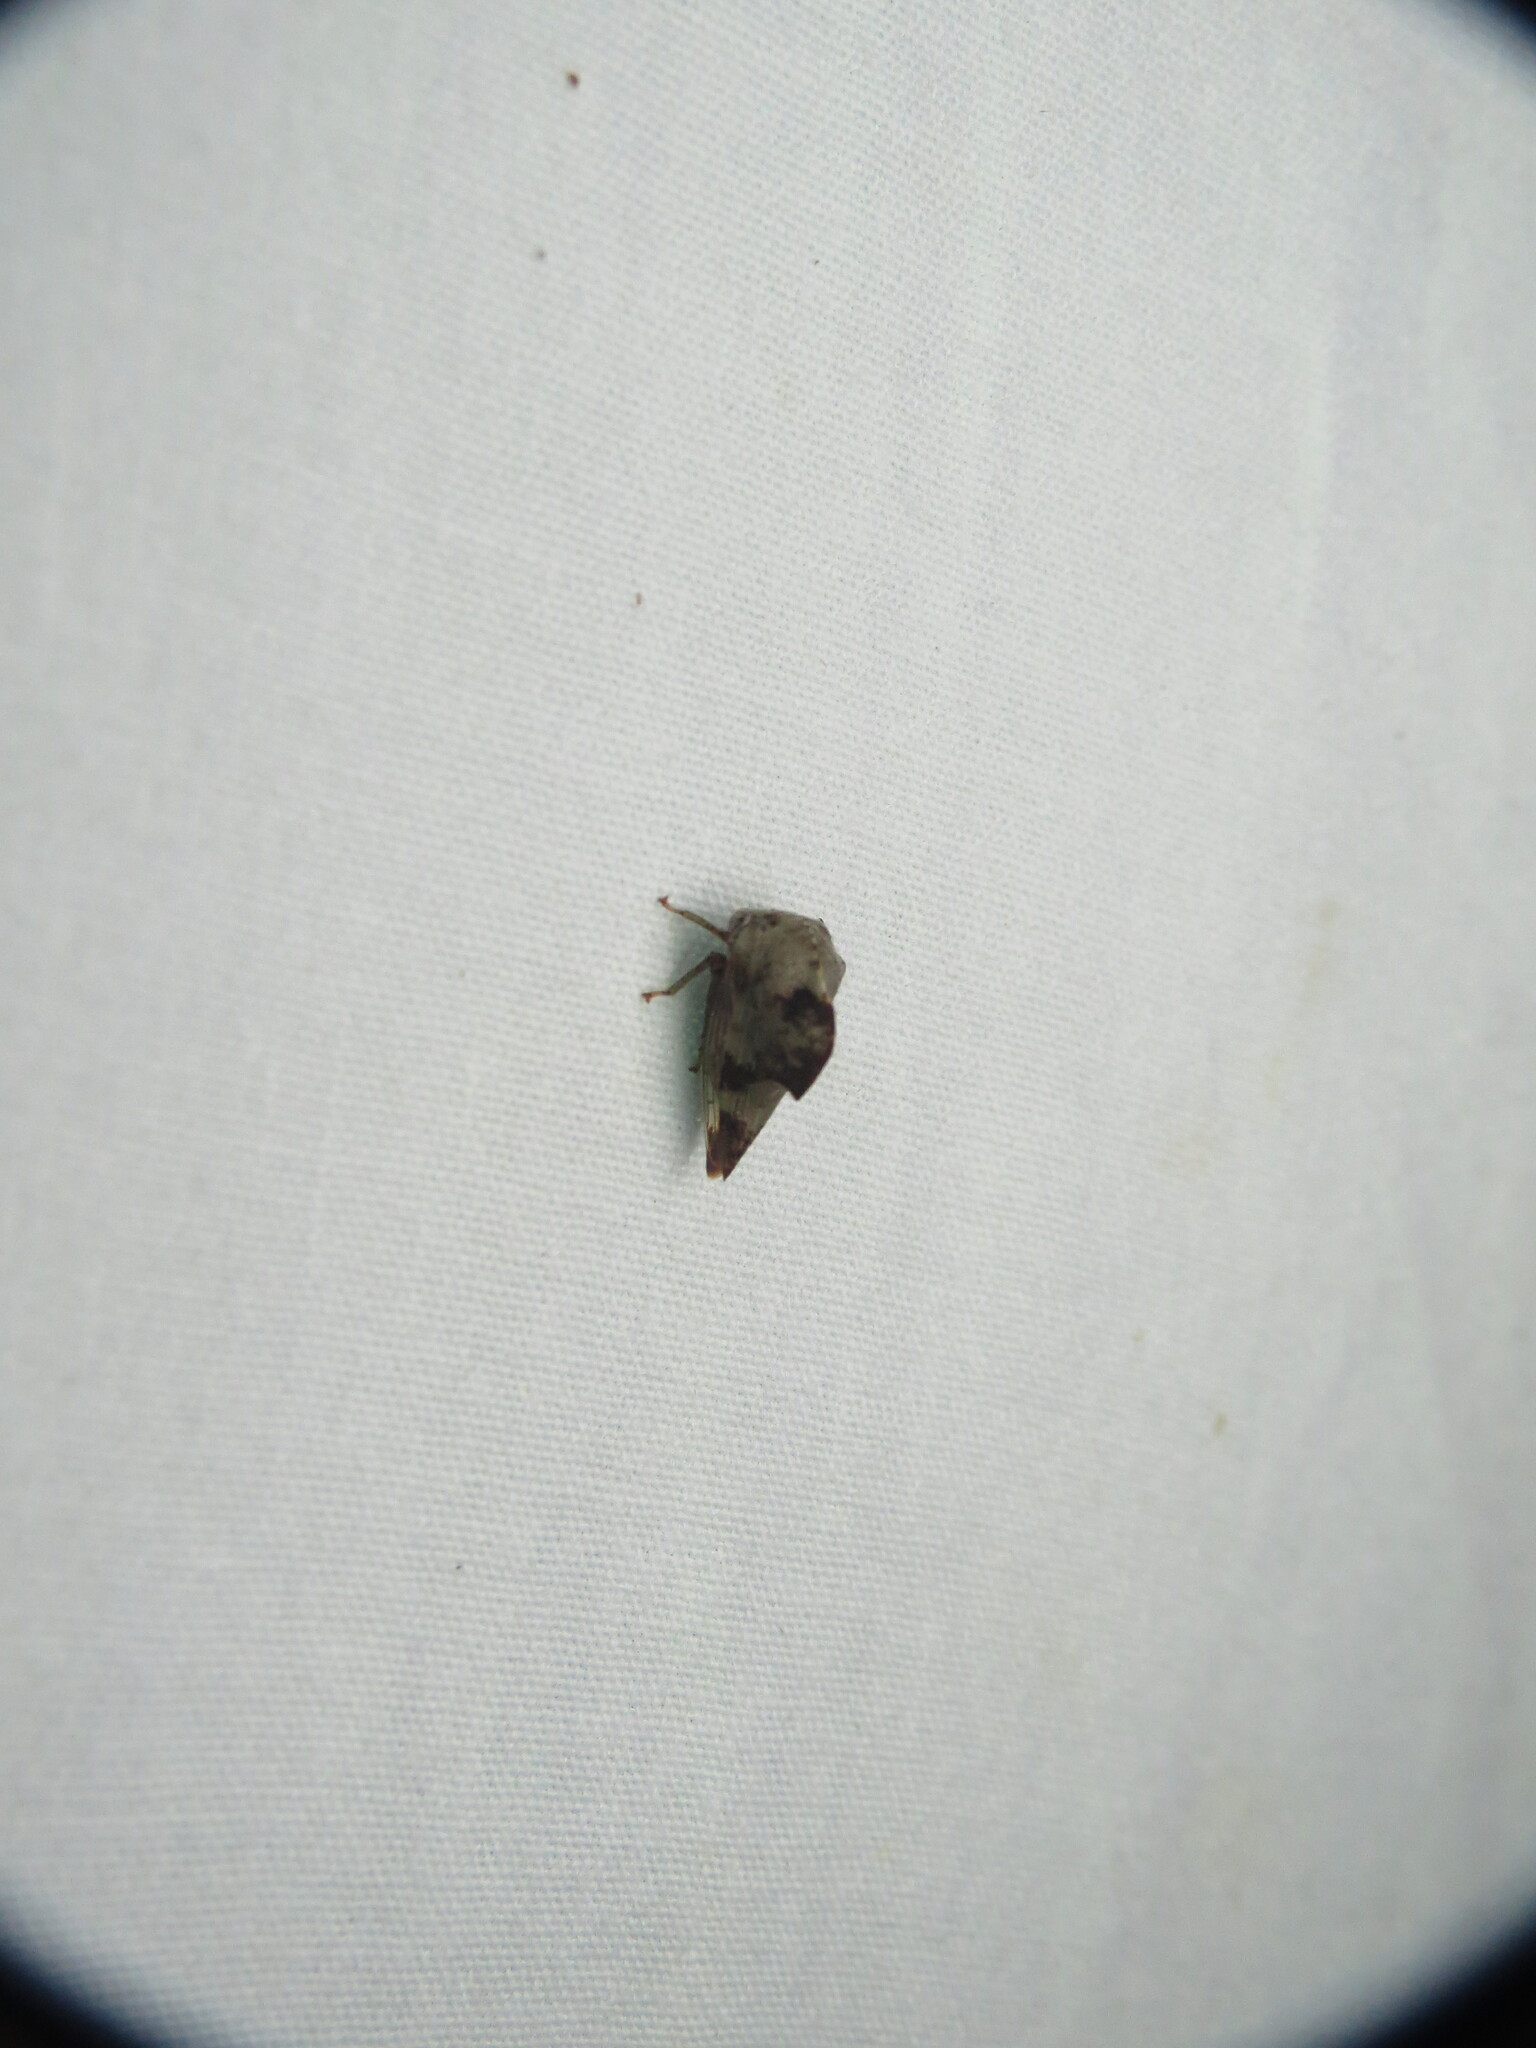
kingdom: Animalia
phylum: Arthropoda
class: Insecta
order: Hemiptera
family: Membracidae
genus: Telamona
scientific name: Telamona reclivata
